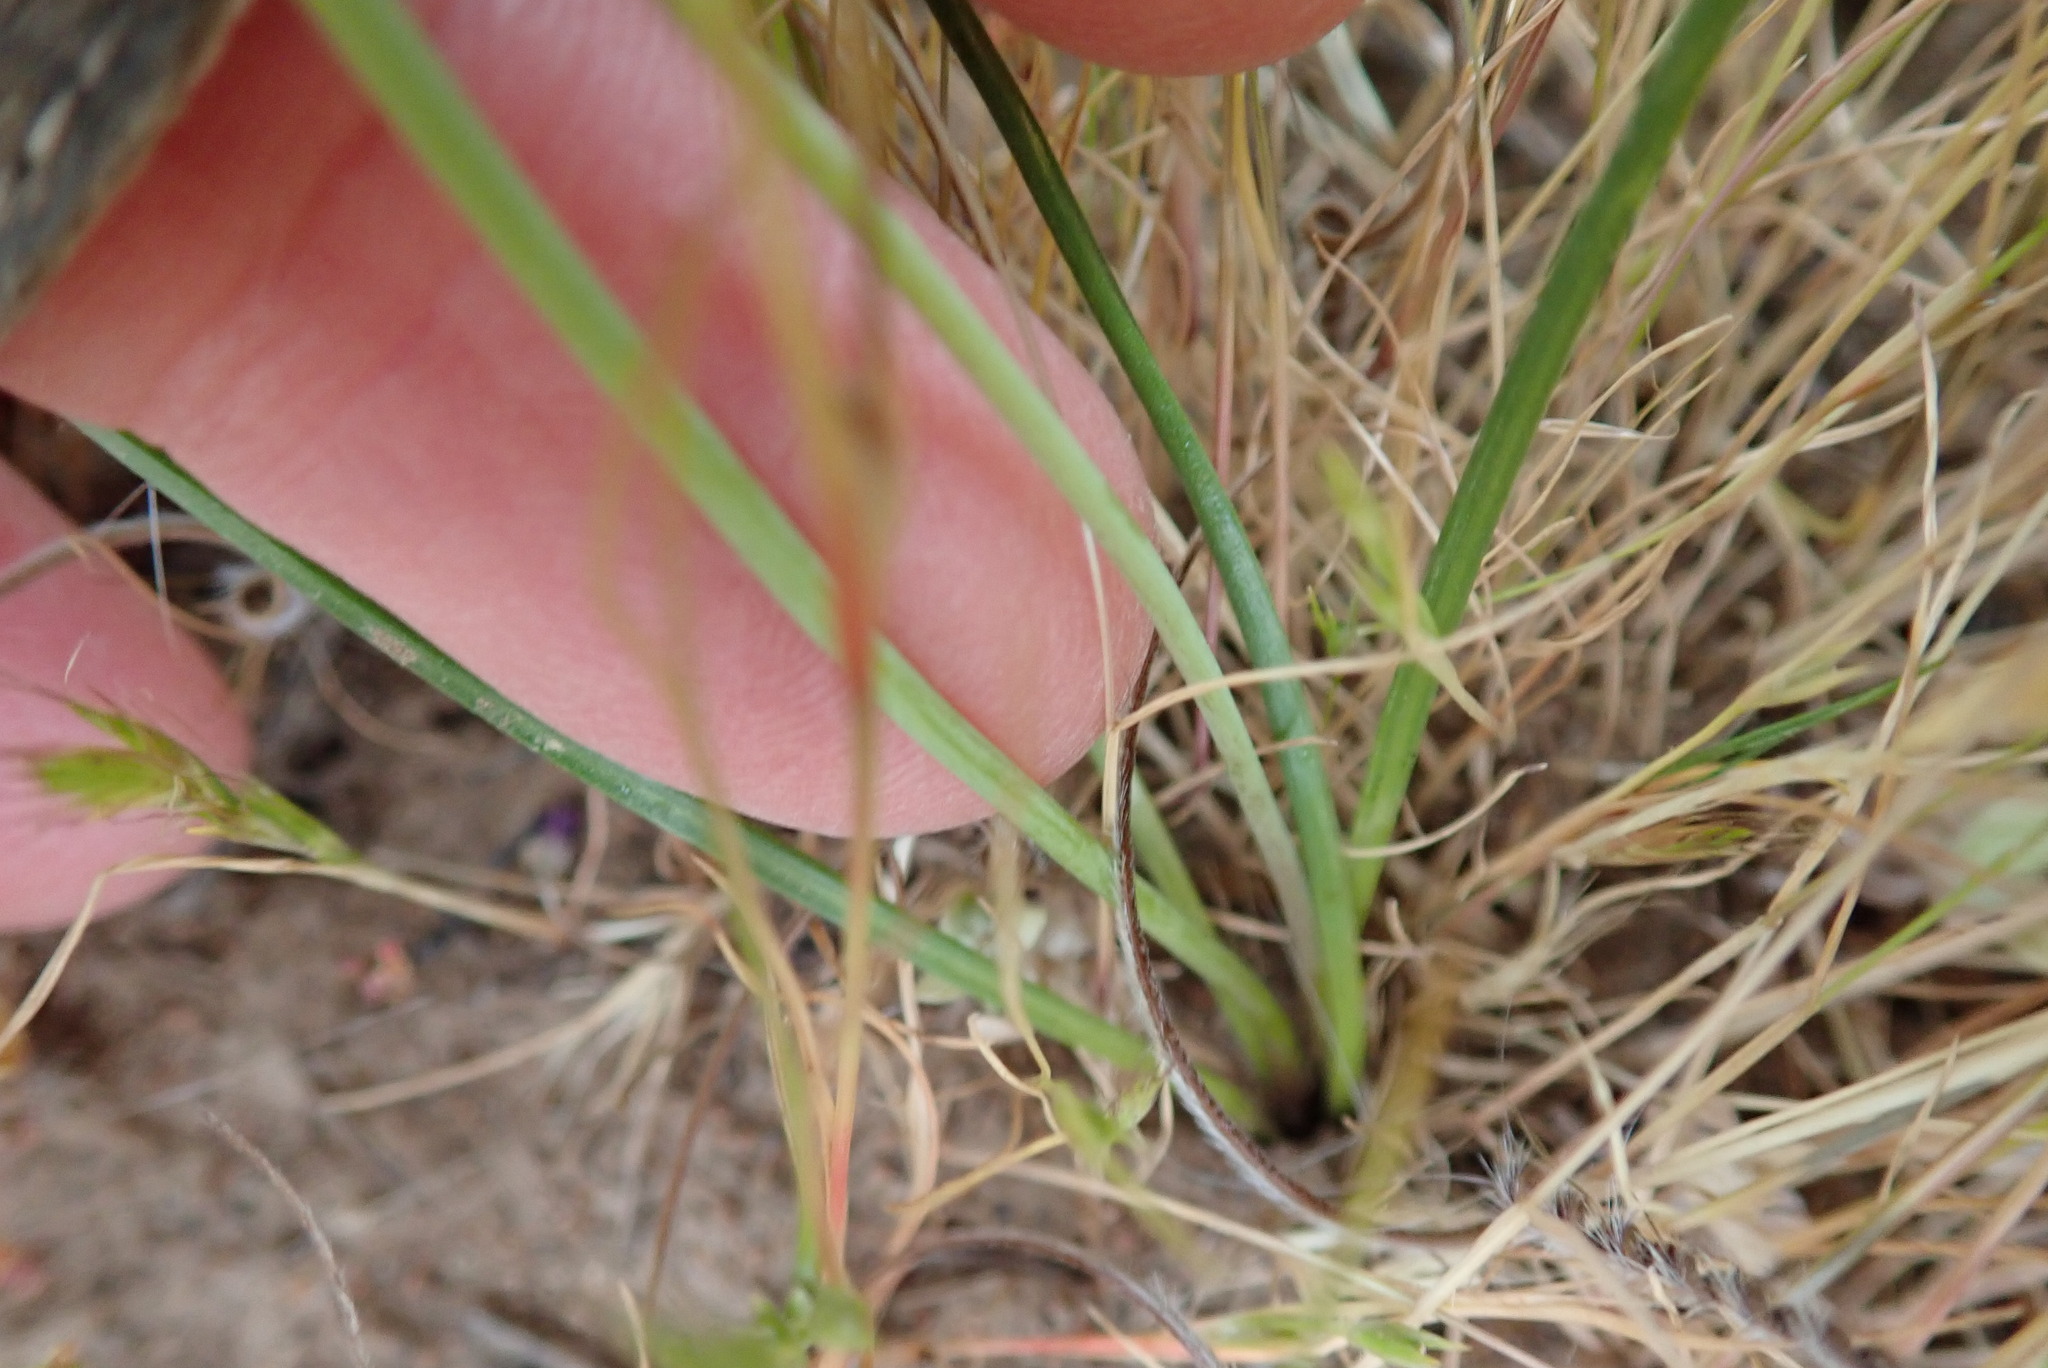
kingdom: Plantae
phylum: Tracheophyta
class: Liliopsida
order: Asparagales
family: Asparagaceae
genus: Muilla
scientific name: Muilla maritima
